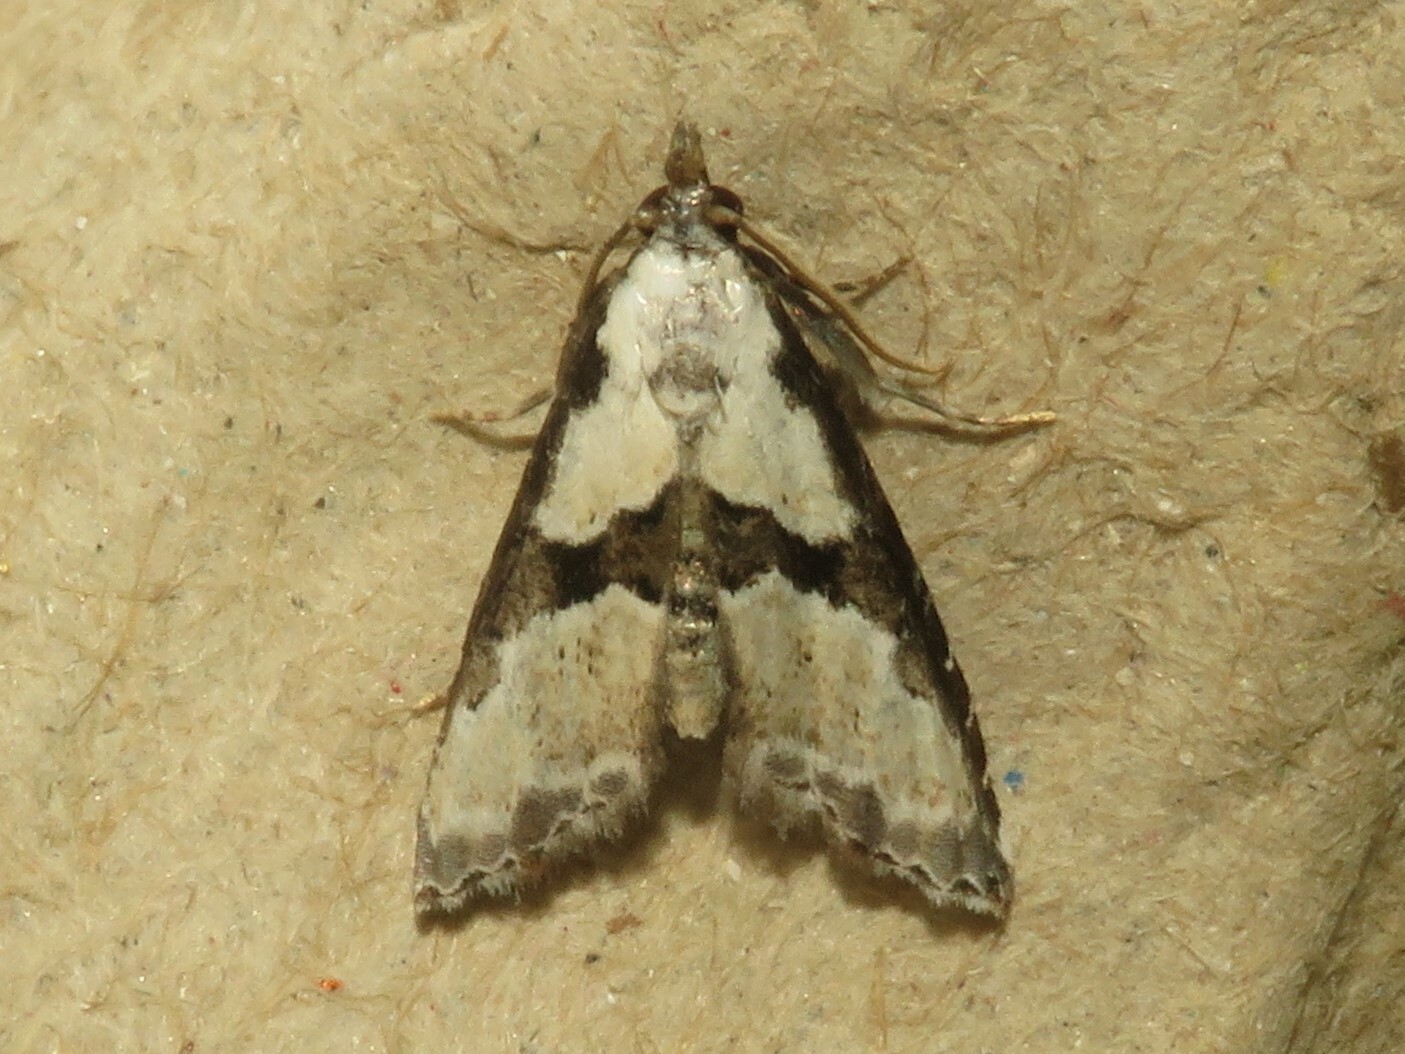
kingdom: Animalia
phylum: Arthropoda
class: Insecta
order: Lepidoptera
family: Noctuidae
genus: Nigetia
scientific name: Nigetia formosalis
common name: Thin-winged owlet
